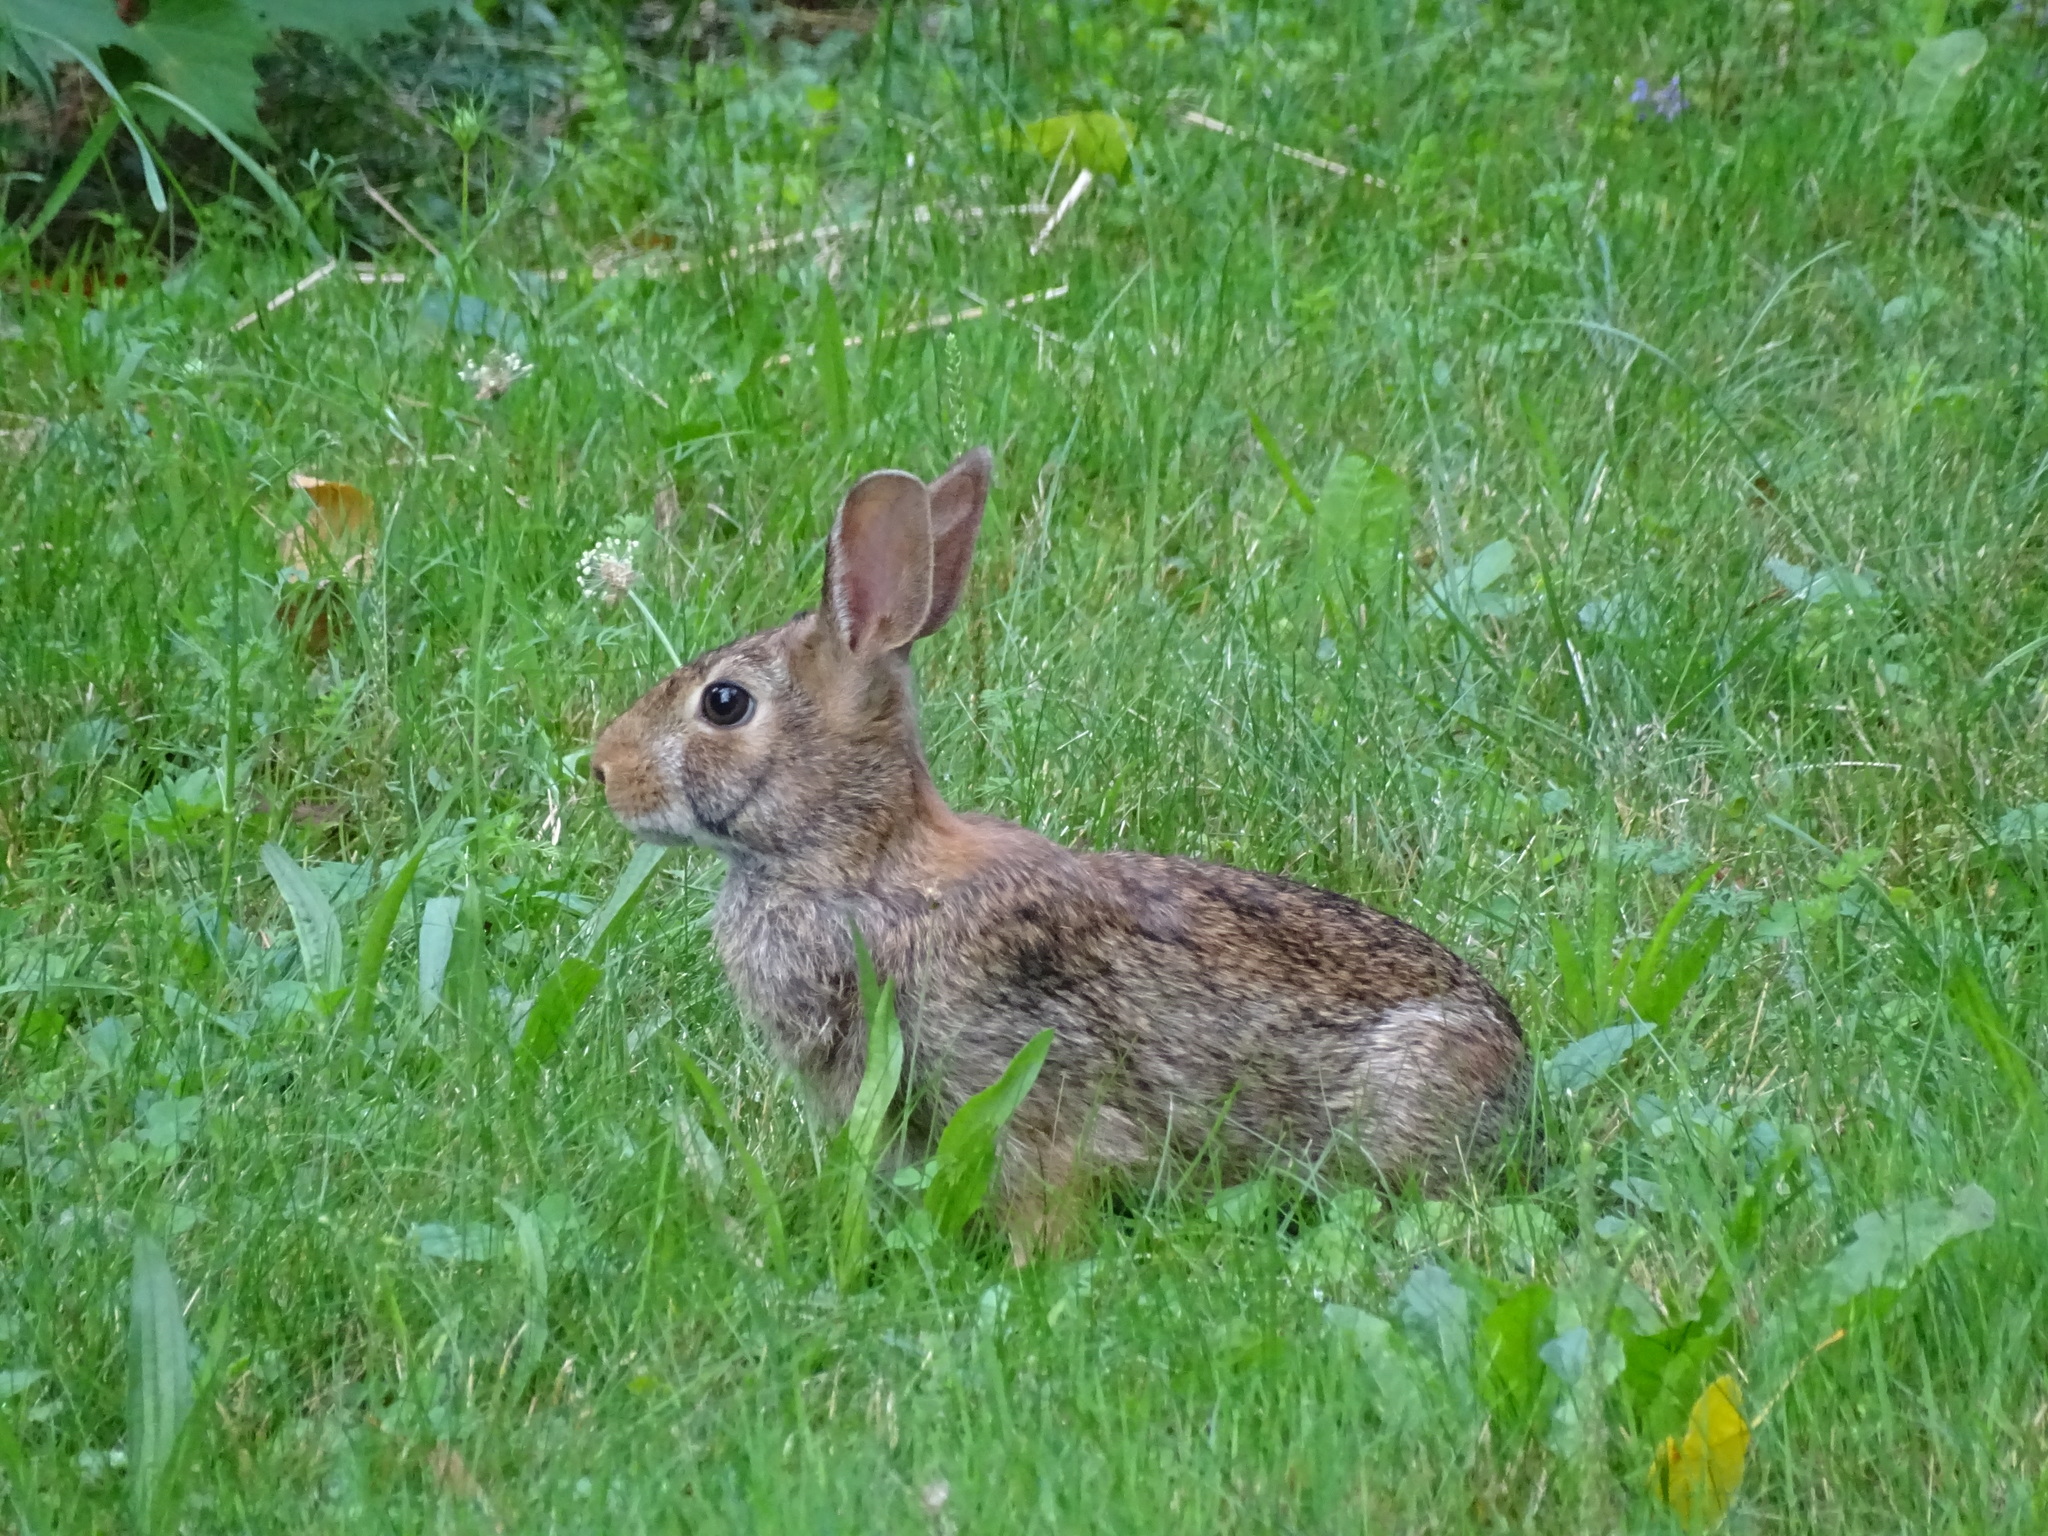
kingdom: Animalia
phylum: Chordata
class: Mammalia
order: Lagomorpha
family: Leporidae
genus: Sylvilagus
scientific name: Sylvilagus floridanus
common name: Eastern cottontail
